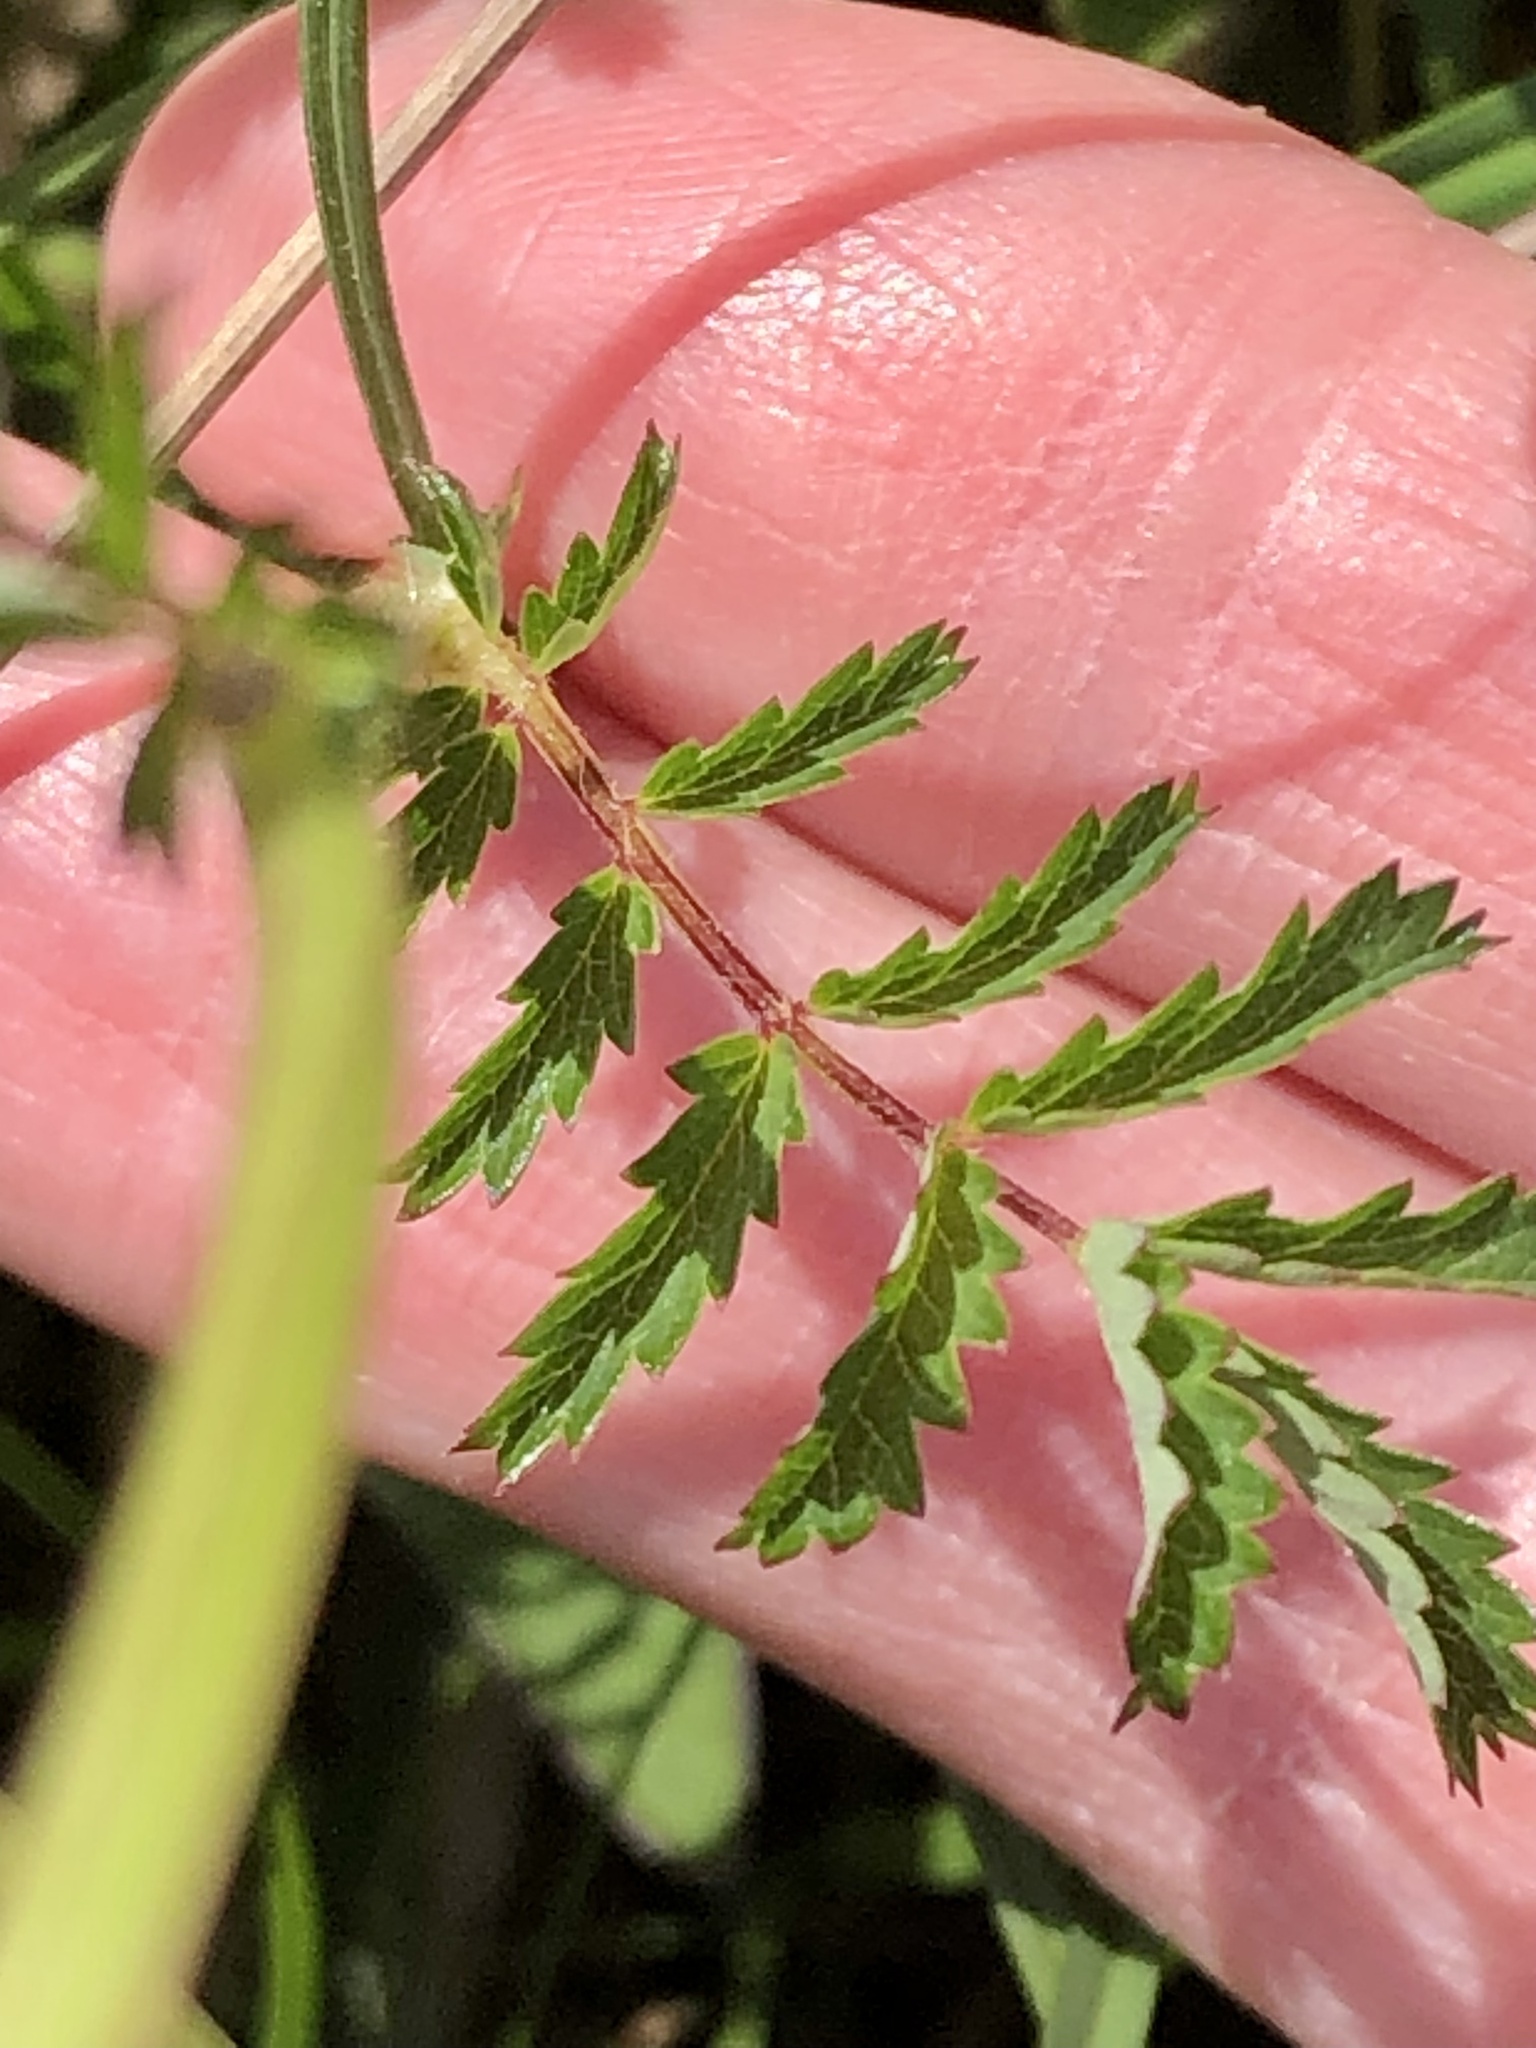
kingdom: Plantae
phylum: Tracheophyta
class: Magnoliopsida
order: Rosales
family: Rosaceae
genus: Poterium
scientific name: Poterium sanguisorba
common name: Salad burnet
